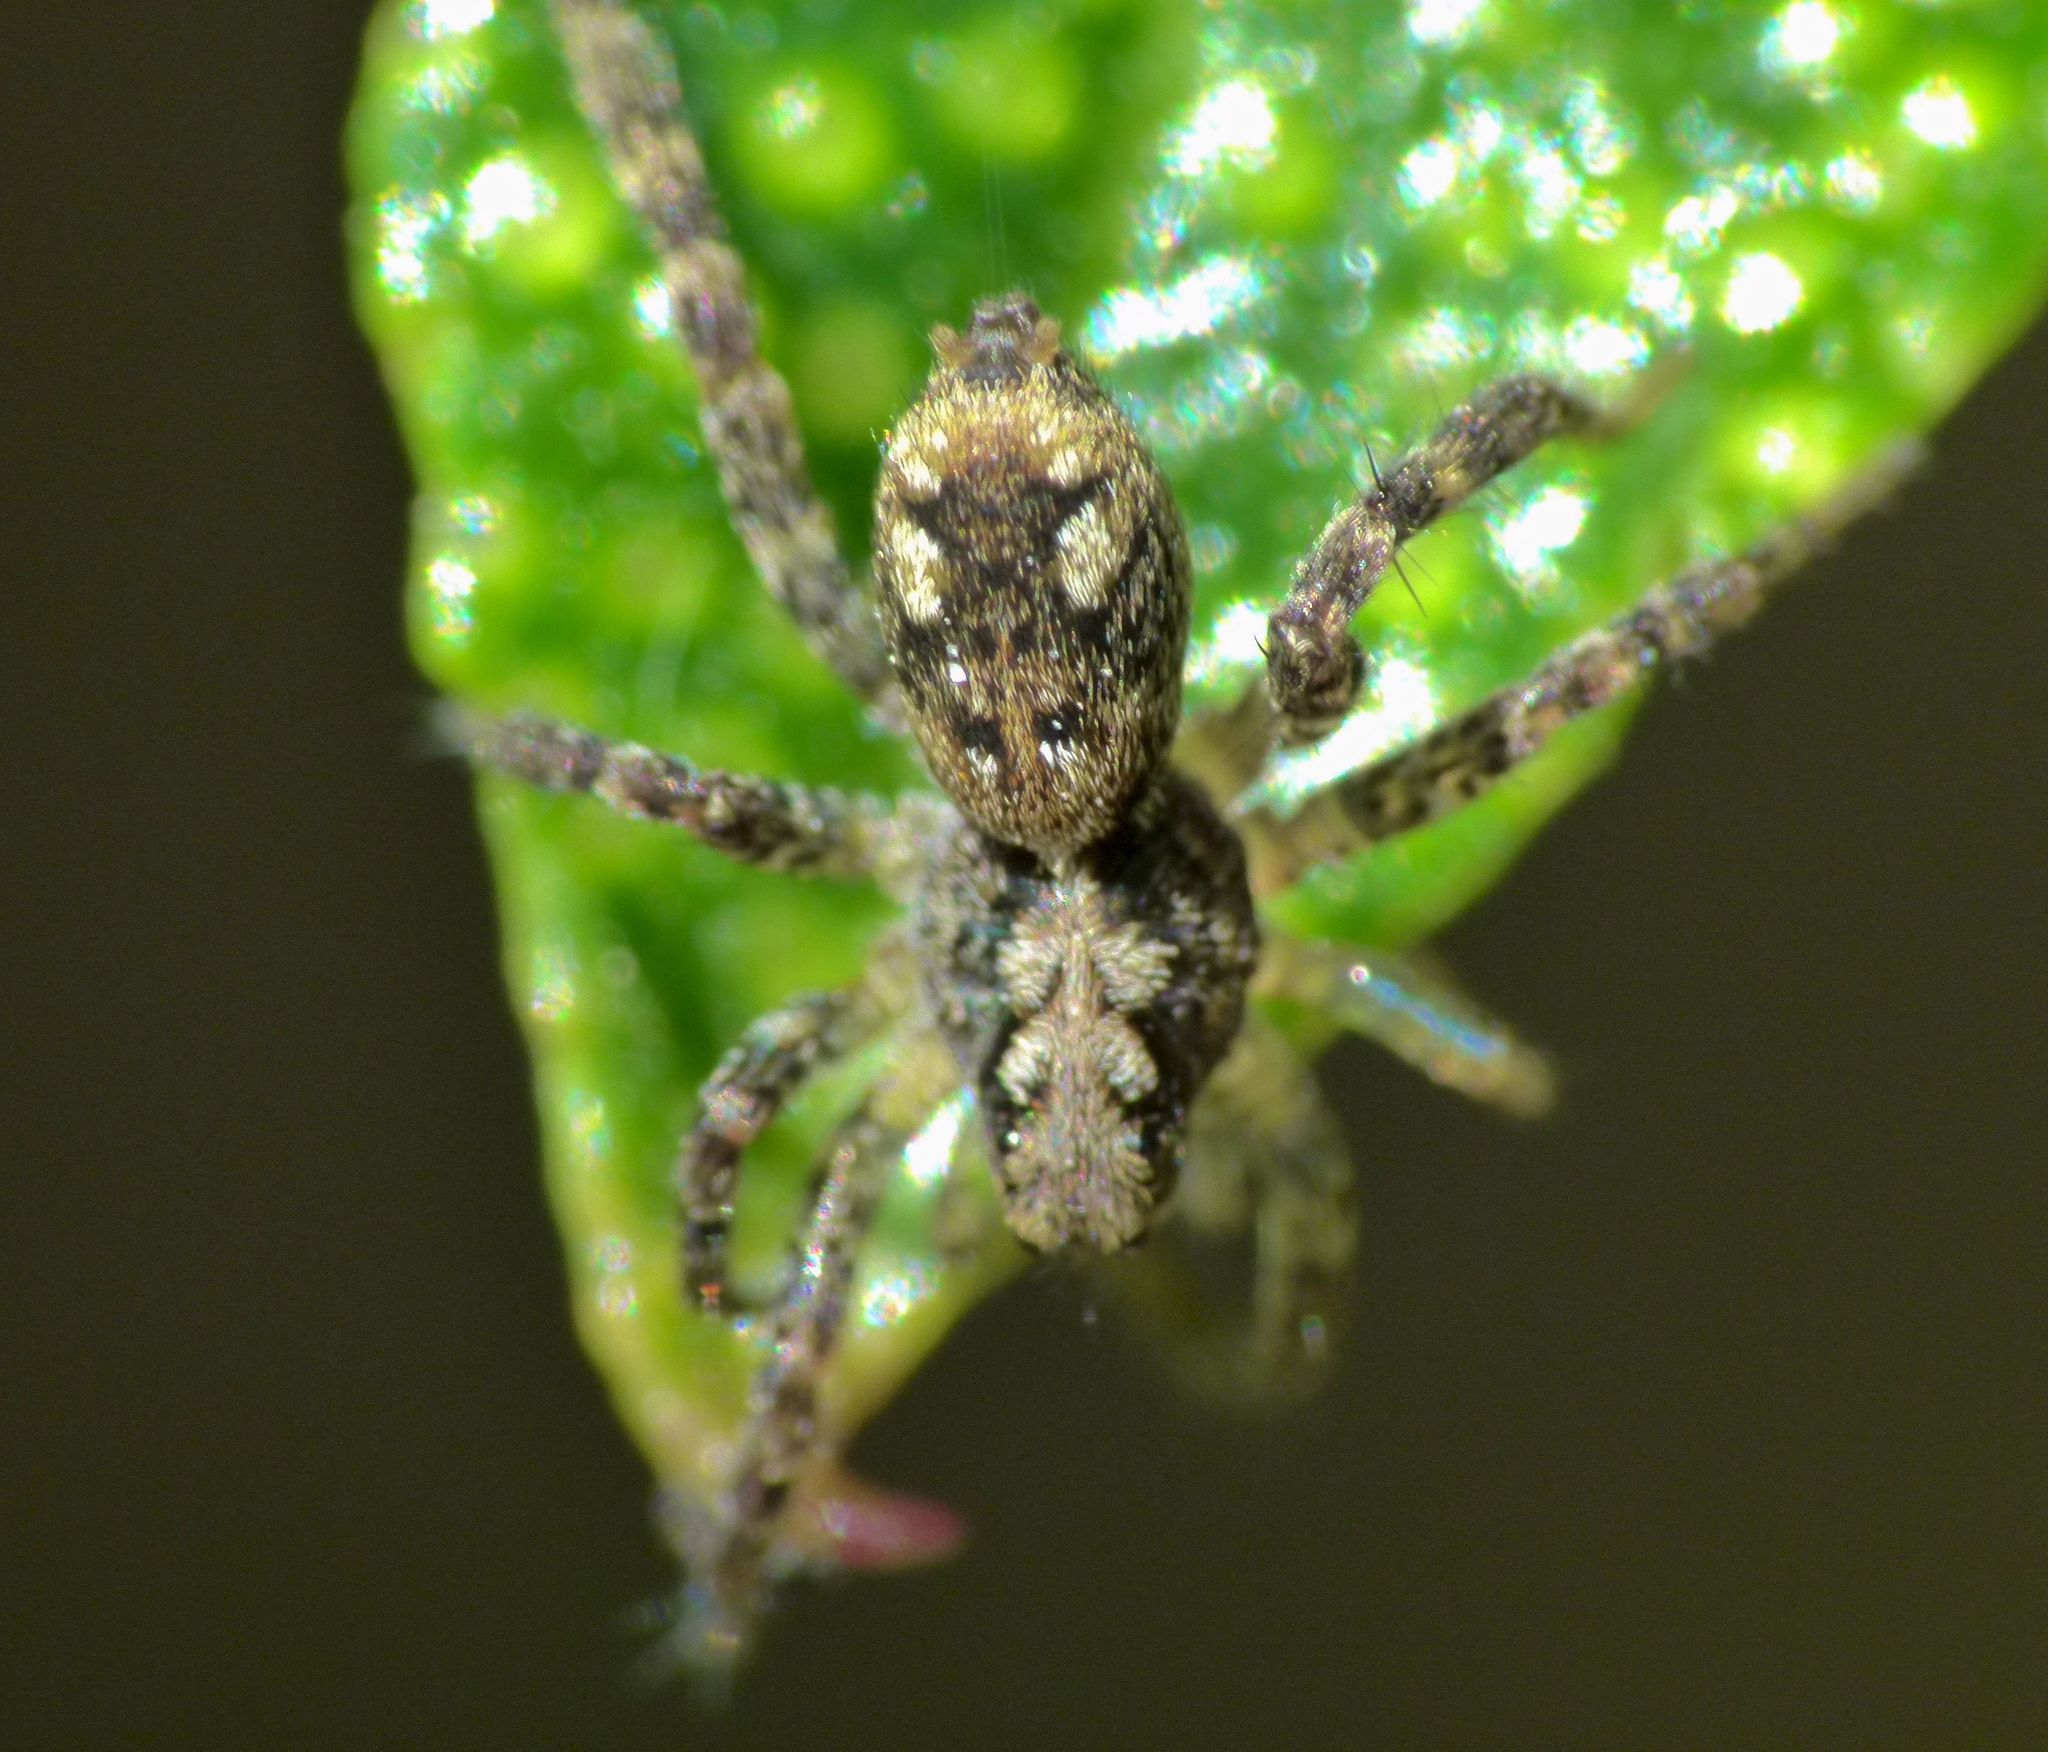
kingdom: Animalia
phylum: Arthropoda
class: Arachnida
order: Araneae
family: Lycosidae
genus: Anoteropsis
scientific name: Anoteropsis hilaris
